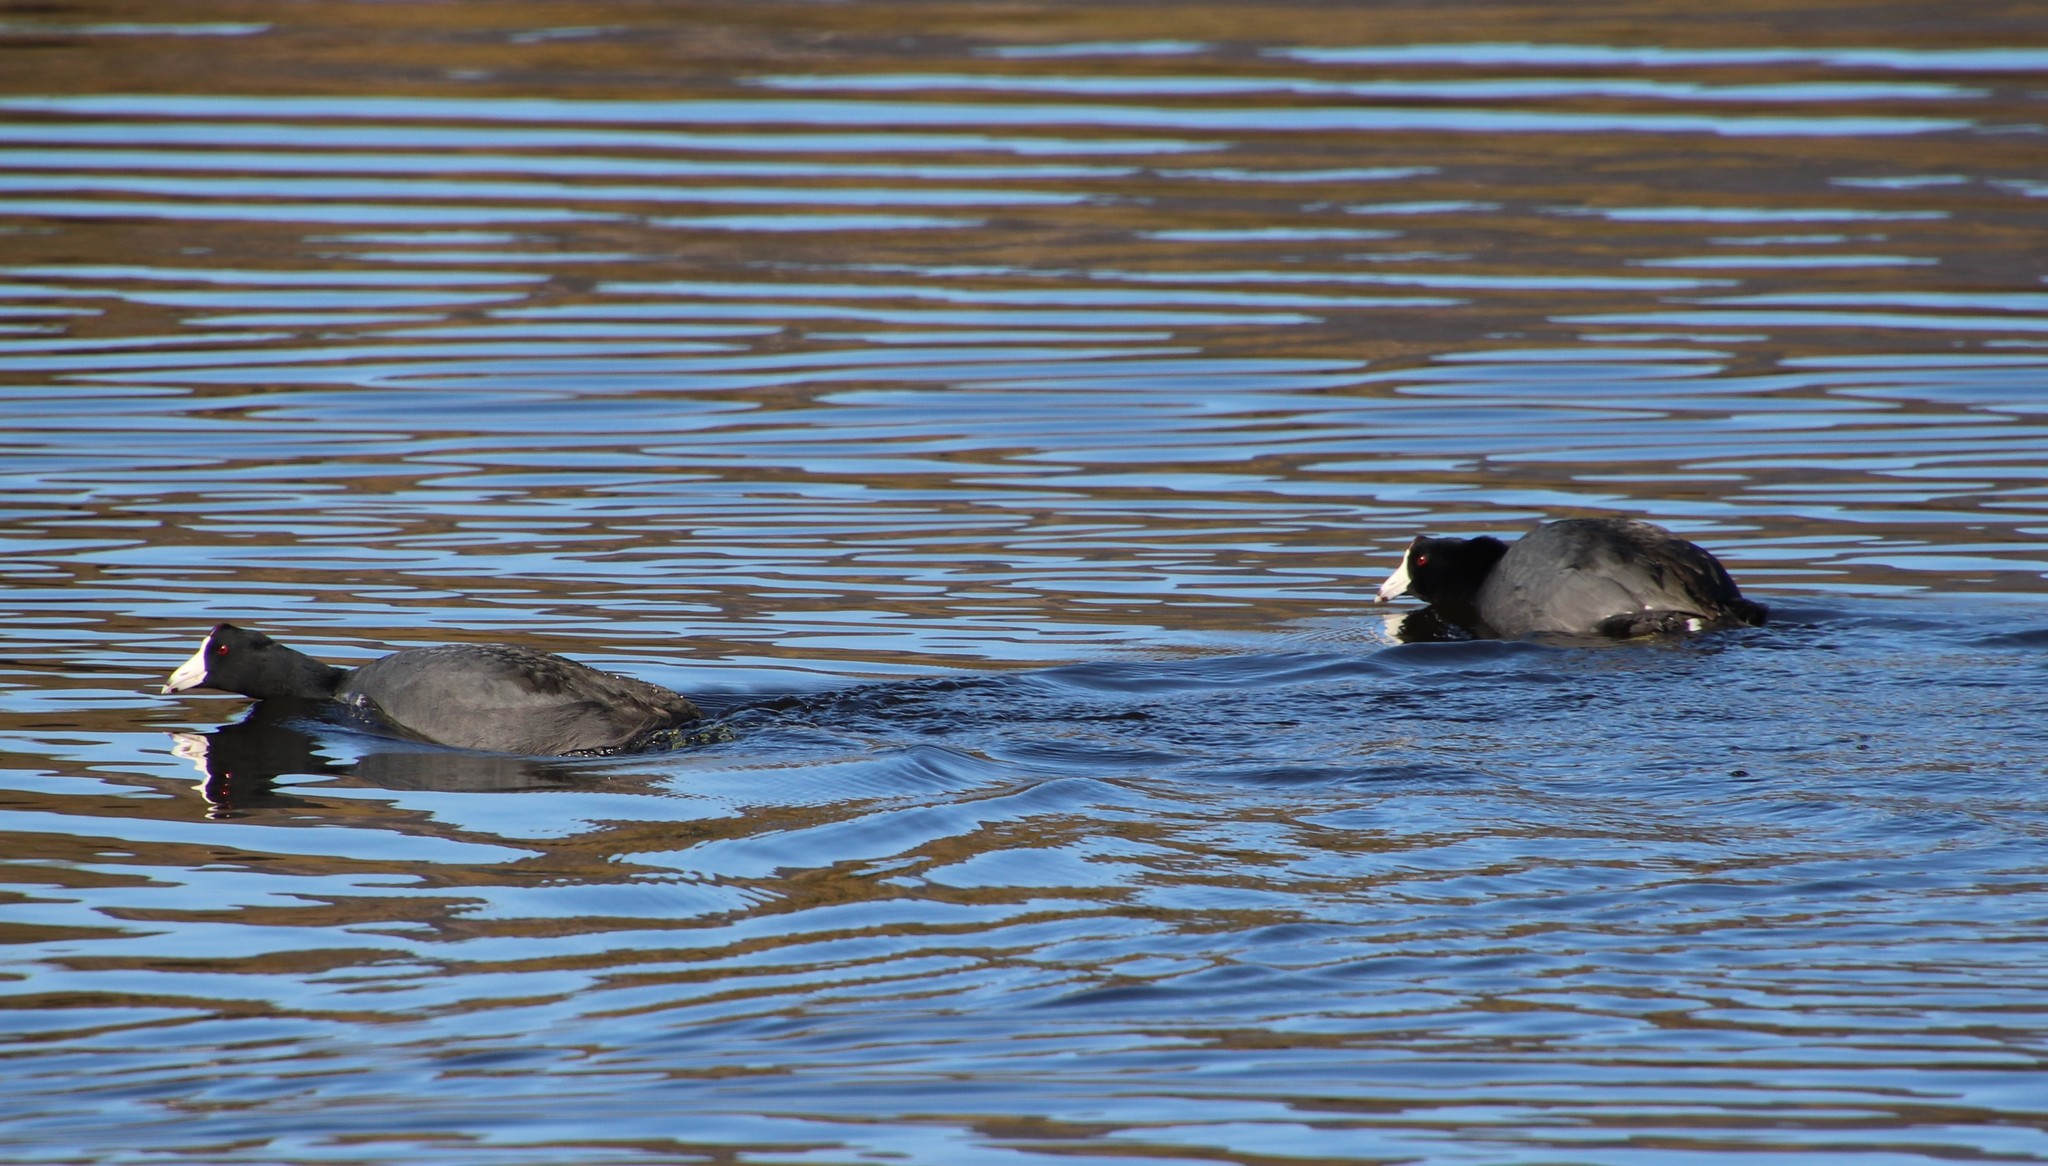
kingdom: Animalia
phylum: Chordata
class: Aves
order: Gruiformes
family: Rallidae
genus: Fulica
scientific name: Fulica americana
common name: American coot
